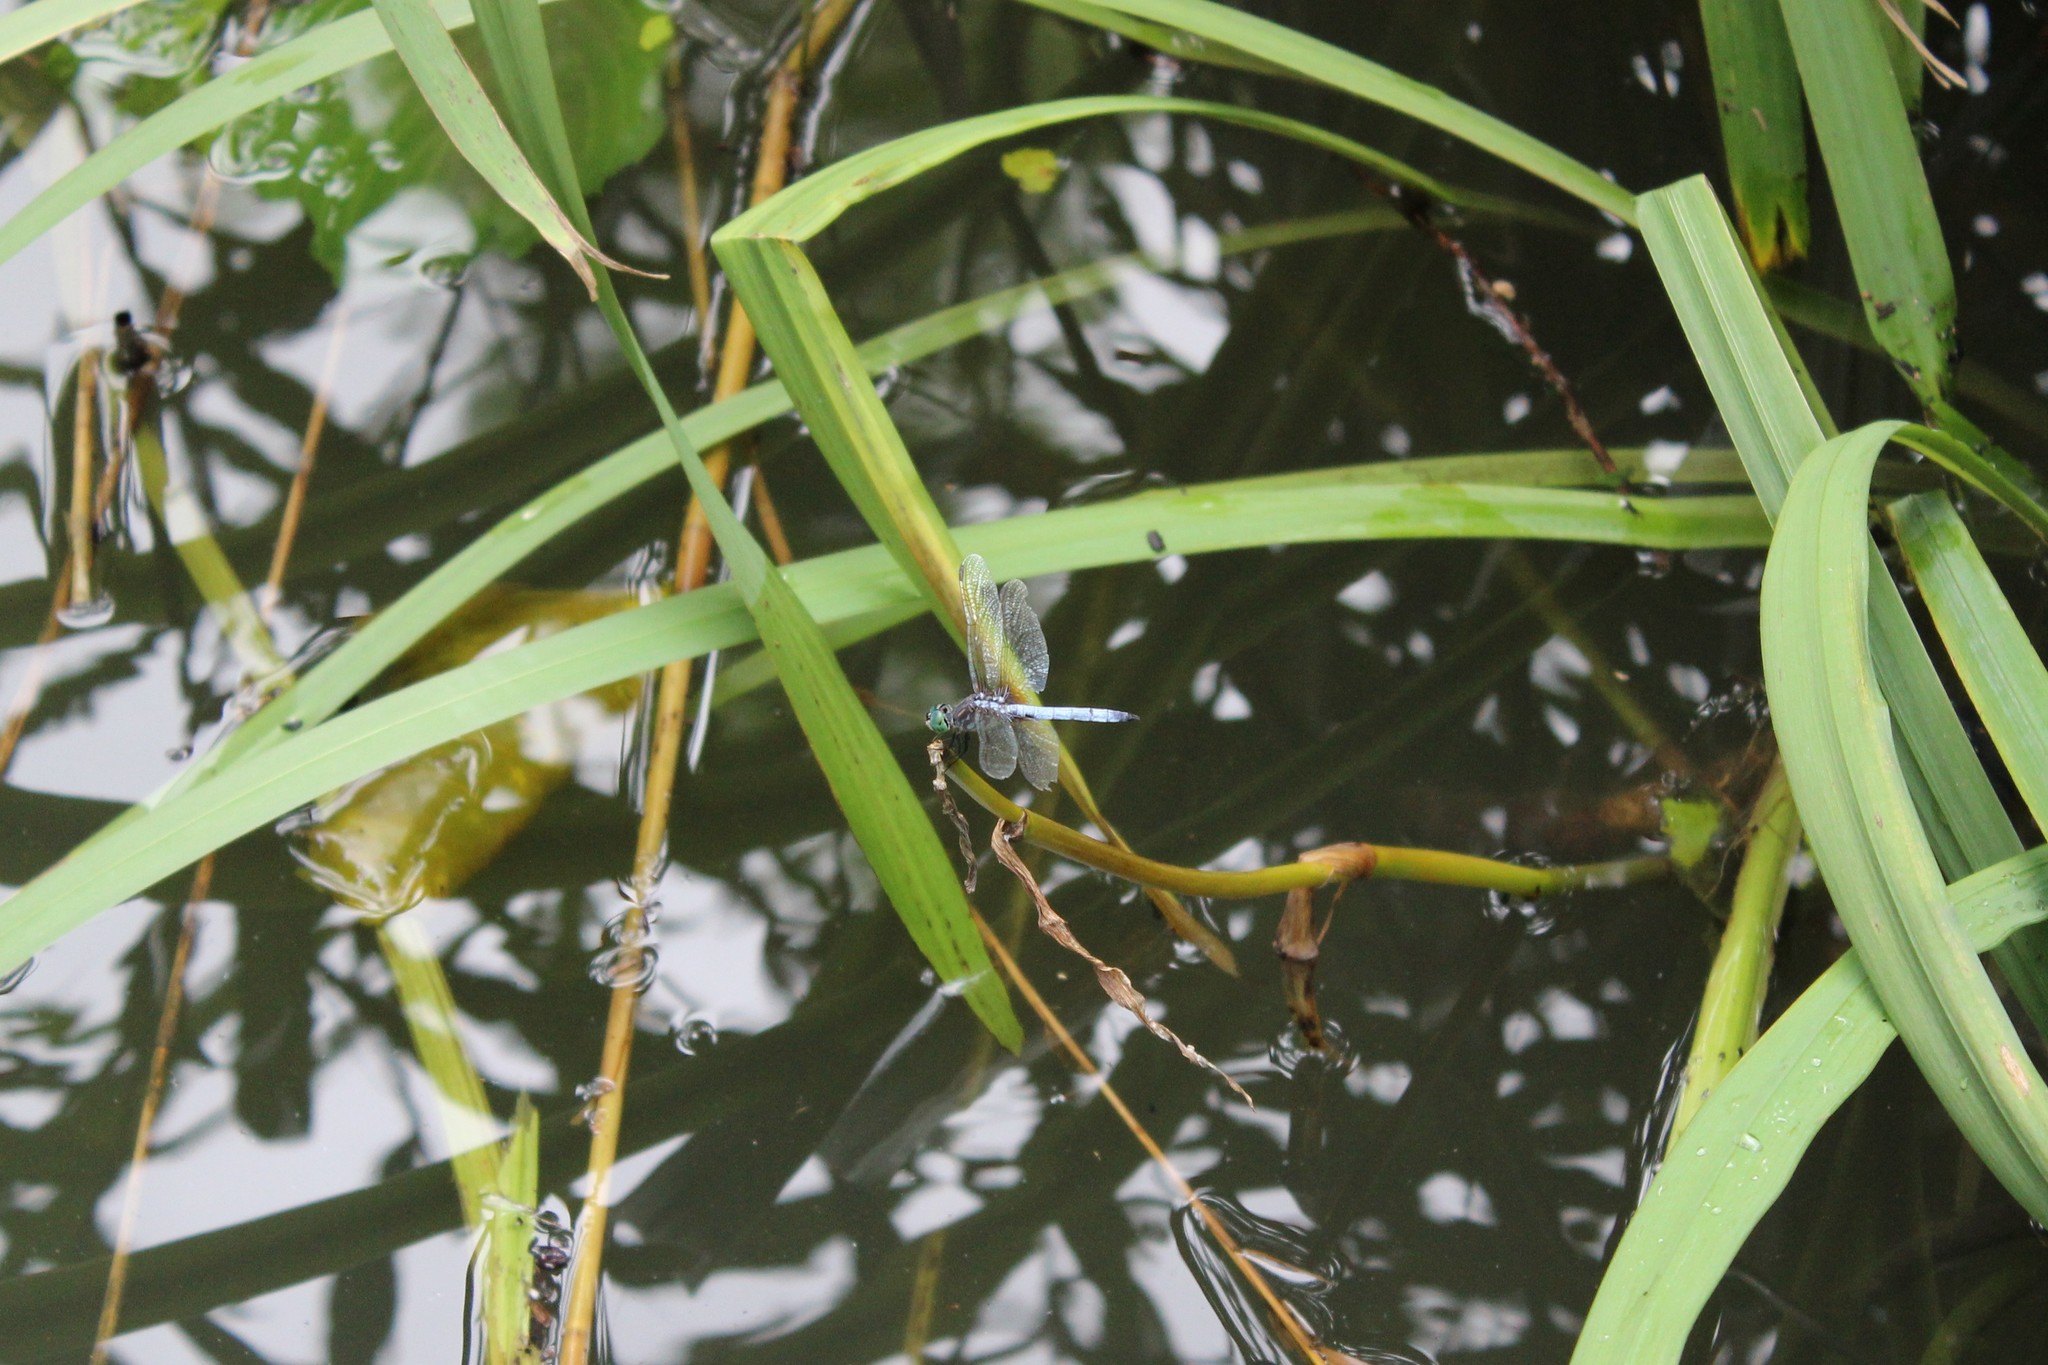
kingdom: Animalia
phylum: Arthropoda
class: Insecta
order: Odonata
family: Libellulidae
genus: Pachydiplax
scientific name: Pachydiplax longipennis
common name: Blue dasher
